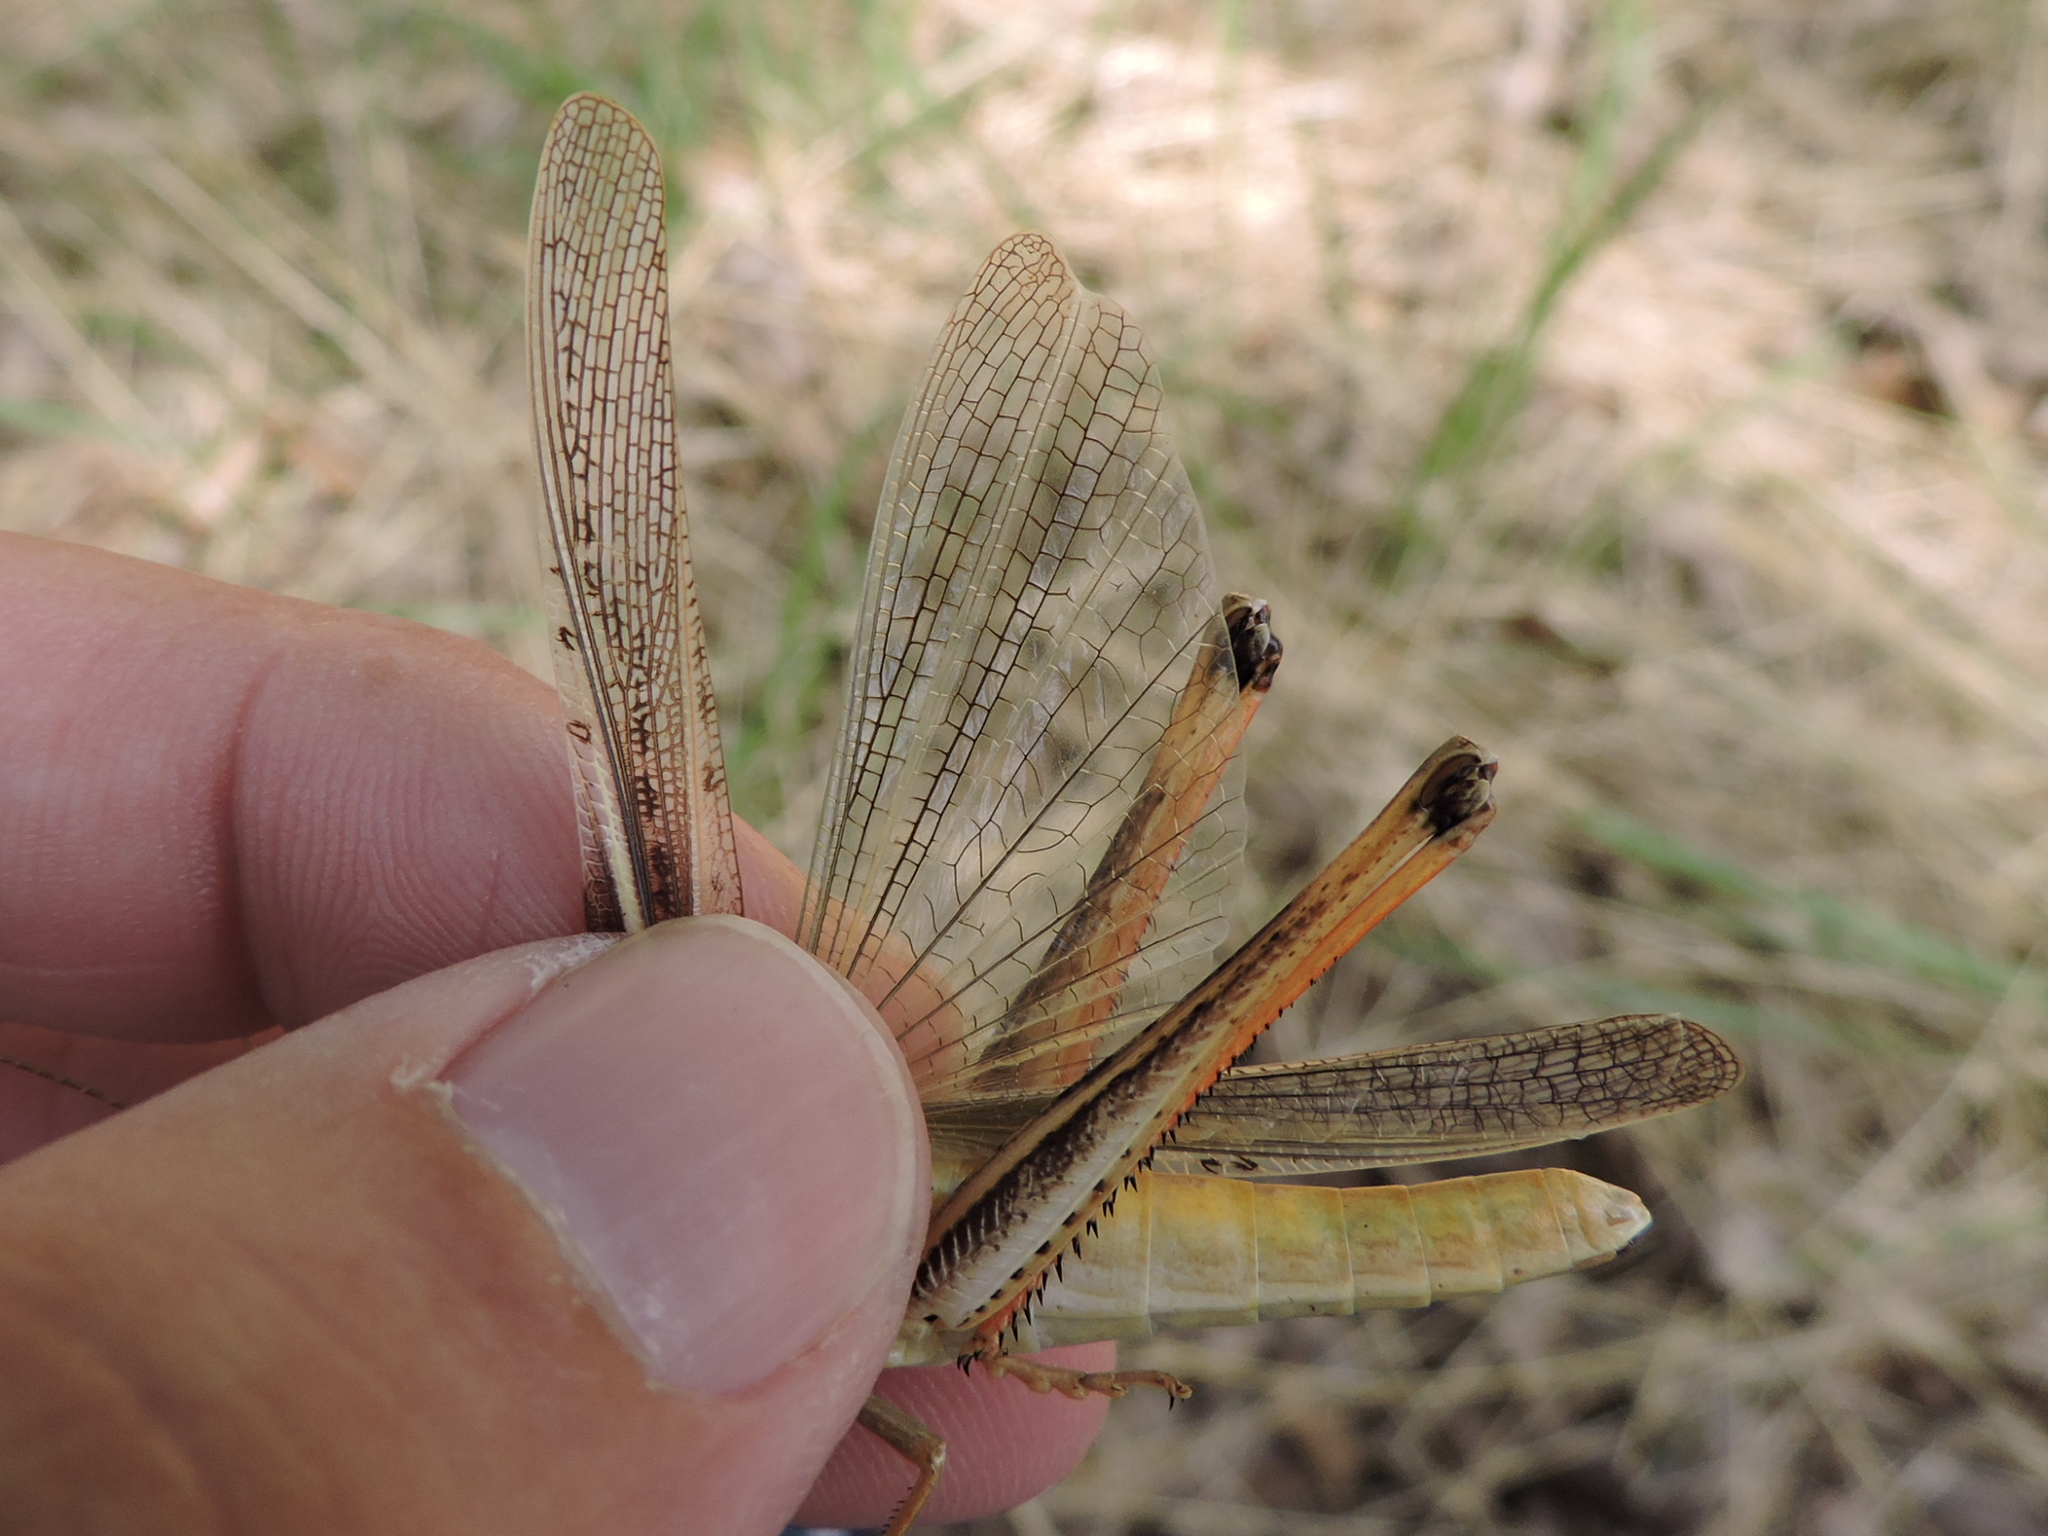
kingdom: Animalia
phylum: Arthropoda
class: Insecta
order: Orthoptera
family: Acrididae
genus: Mermiria
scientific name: Mermiria bivittata
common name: Two-striped mermiria grasshopper
